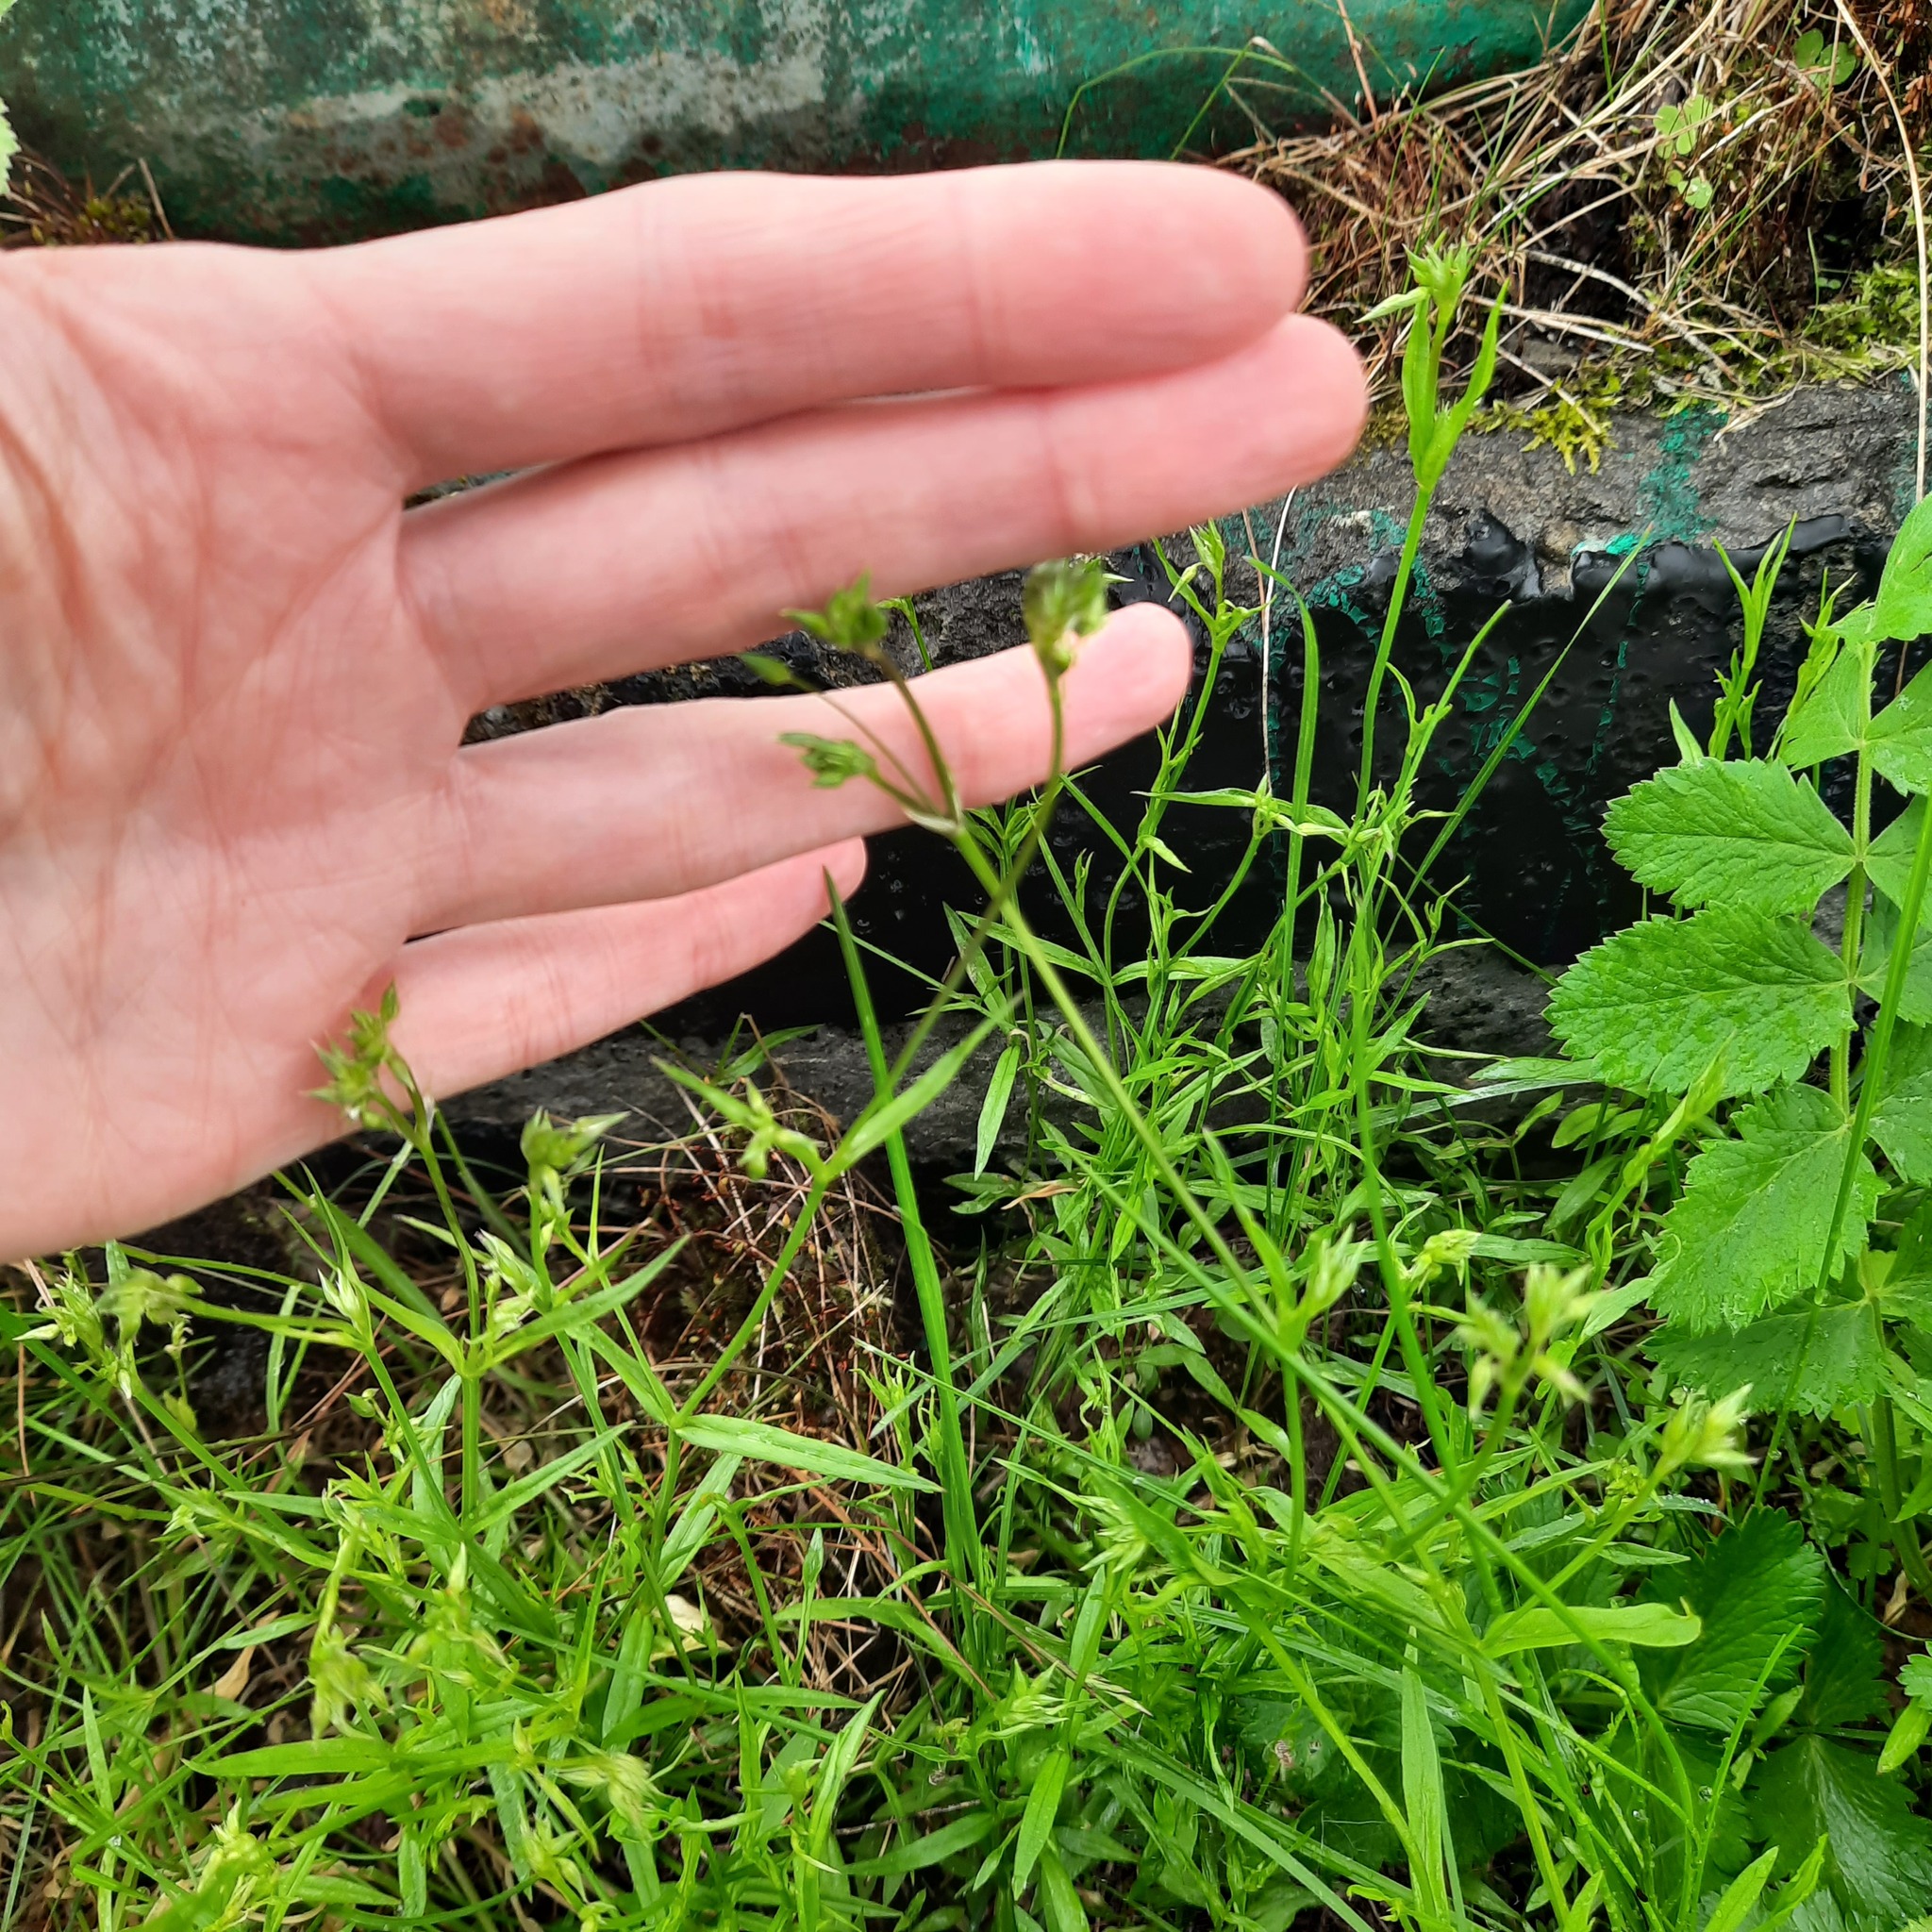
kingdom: Plantae
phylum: Tracheophyta
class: Magnoliopsida
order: Caryophyllales
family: Caryophyllaceae
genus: Stellaria
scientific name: Stellaria graminea
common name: Grass-like starwort
